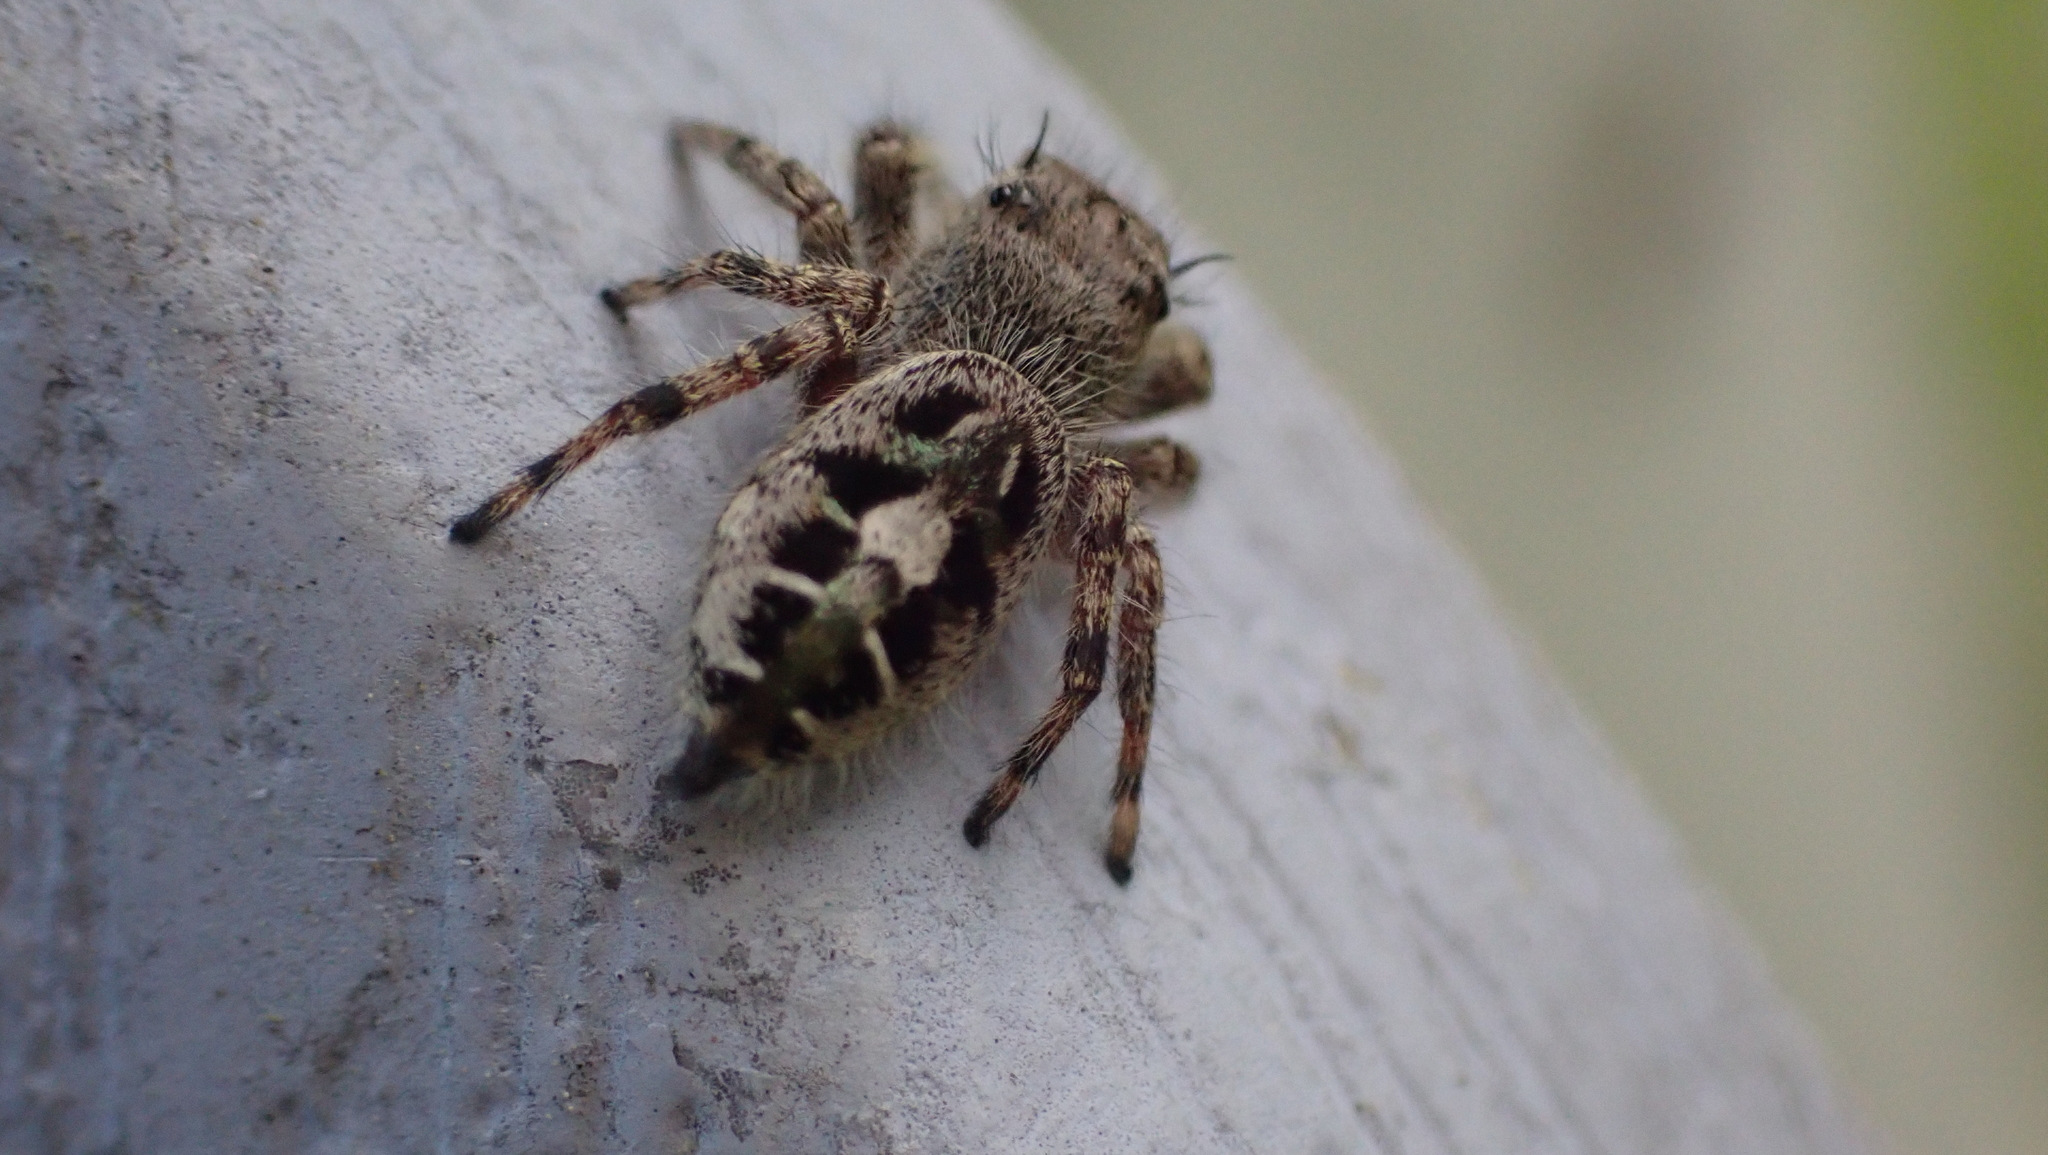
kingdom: Animalia
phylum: Arthropoda
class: Arachnida
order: Araneae
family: Salticidae
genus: Phidippus
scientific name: Phidippus putnami
